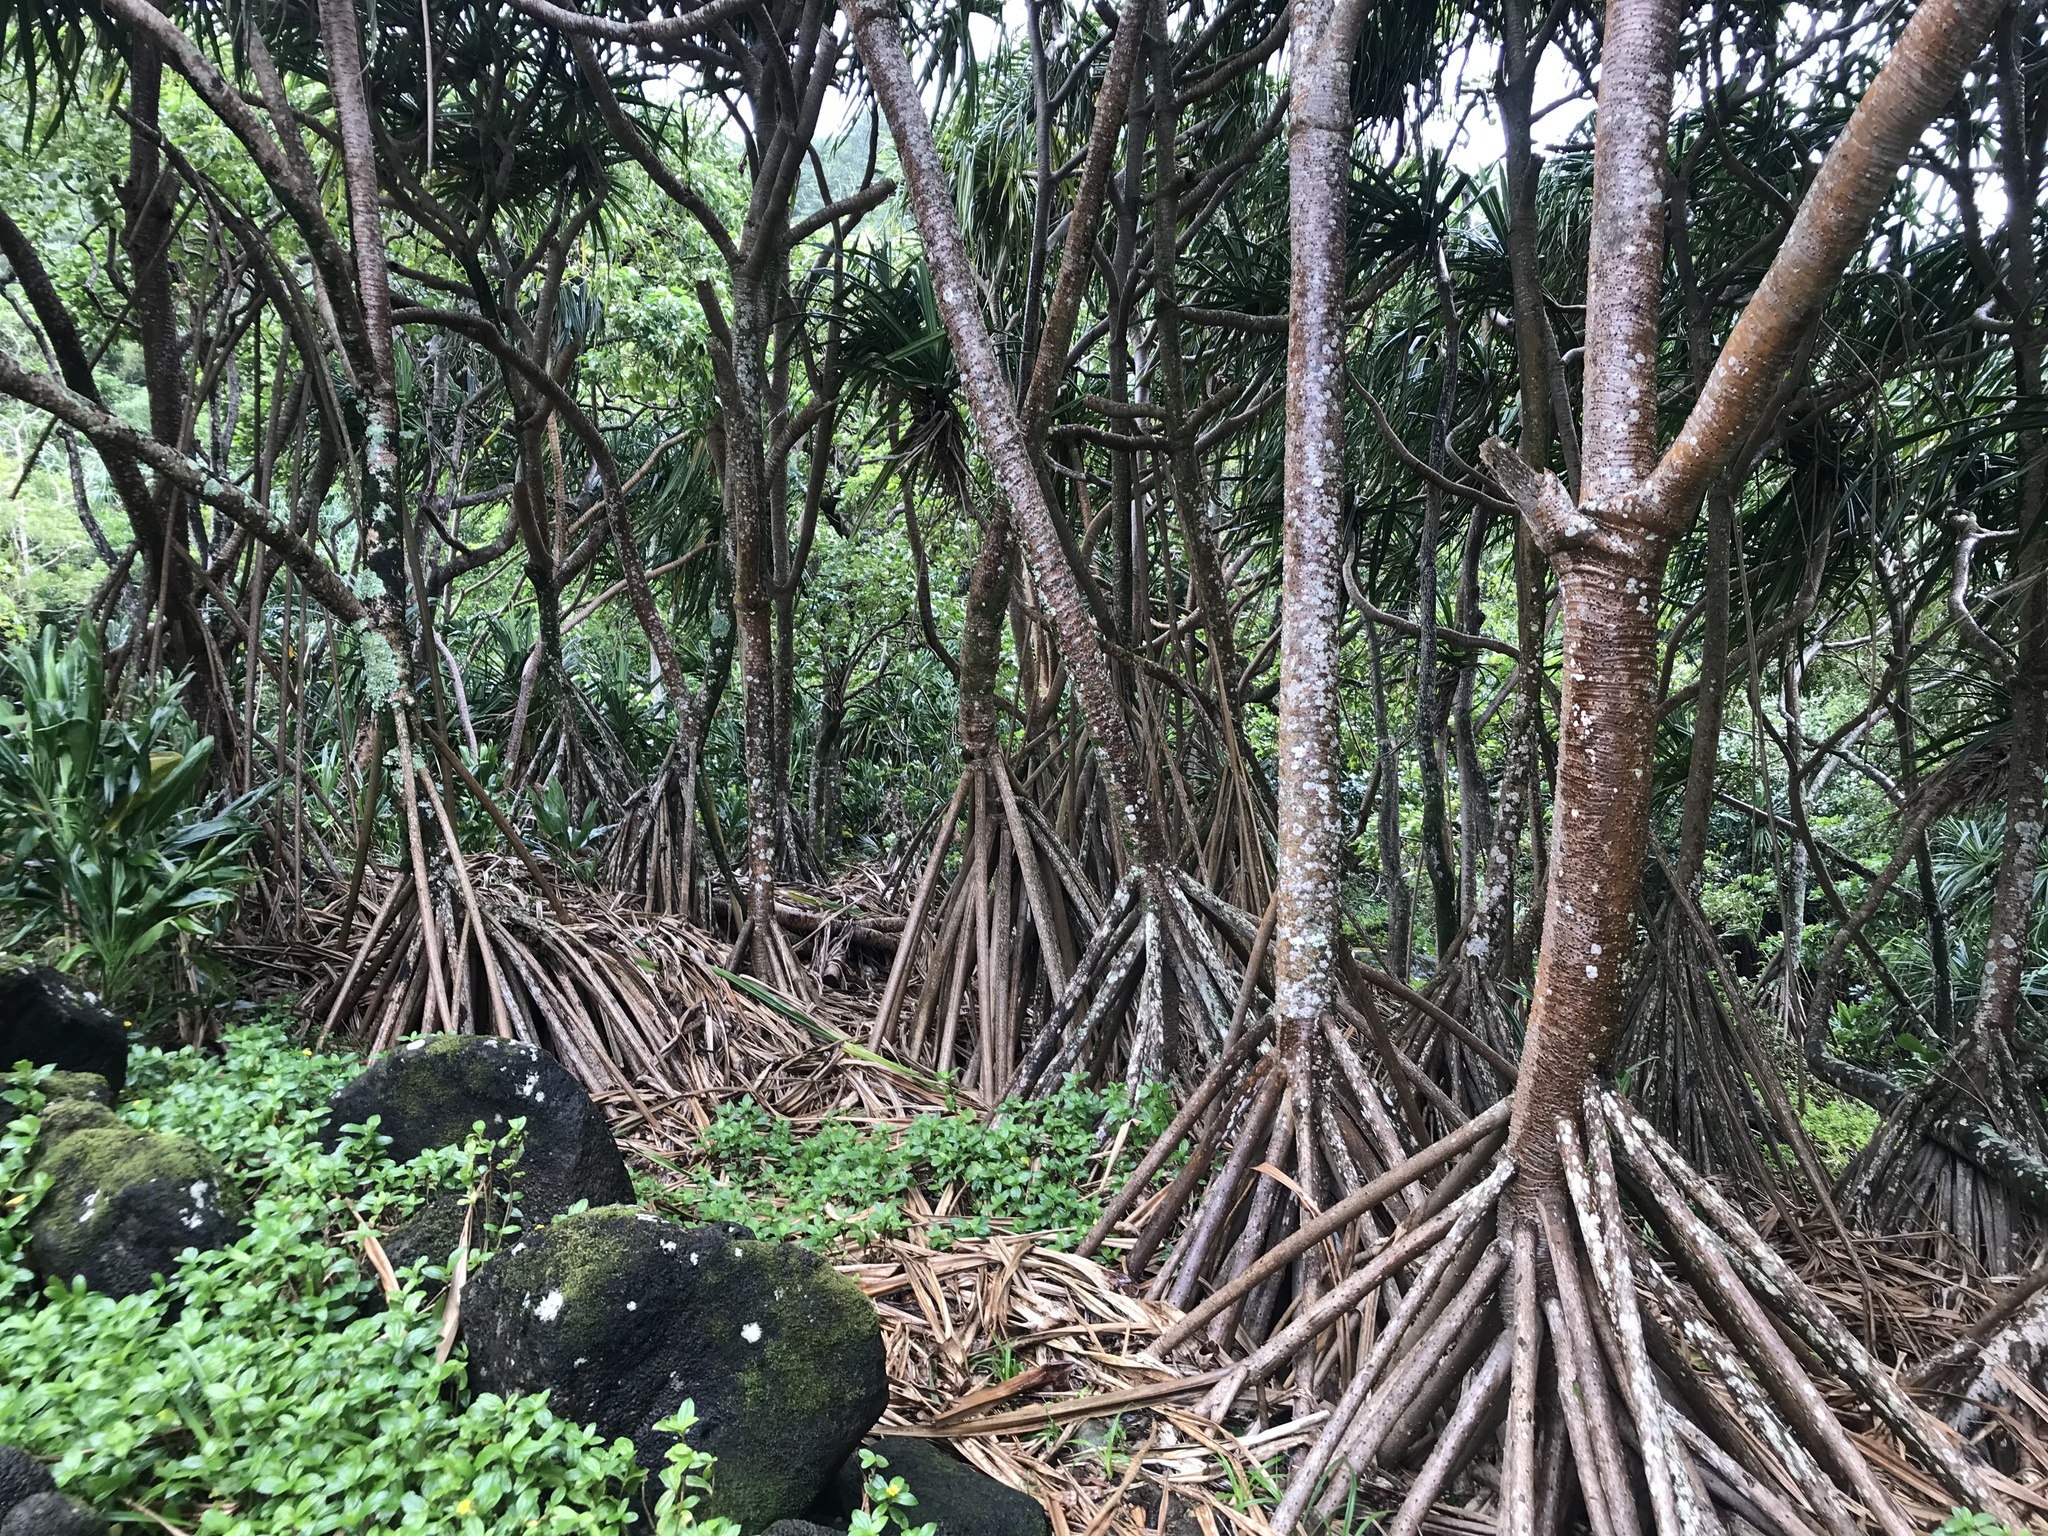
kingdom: Plantae
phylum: Tracheophyta
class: Liliopsida
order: Pandanales
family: Pandanaceae
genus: Pandanus
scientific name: Pandanus tectorius
